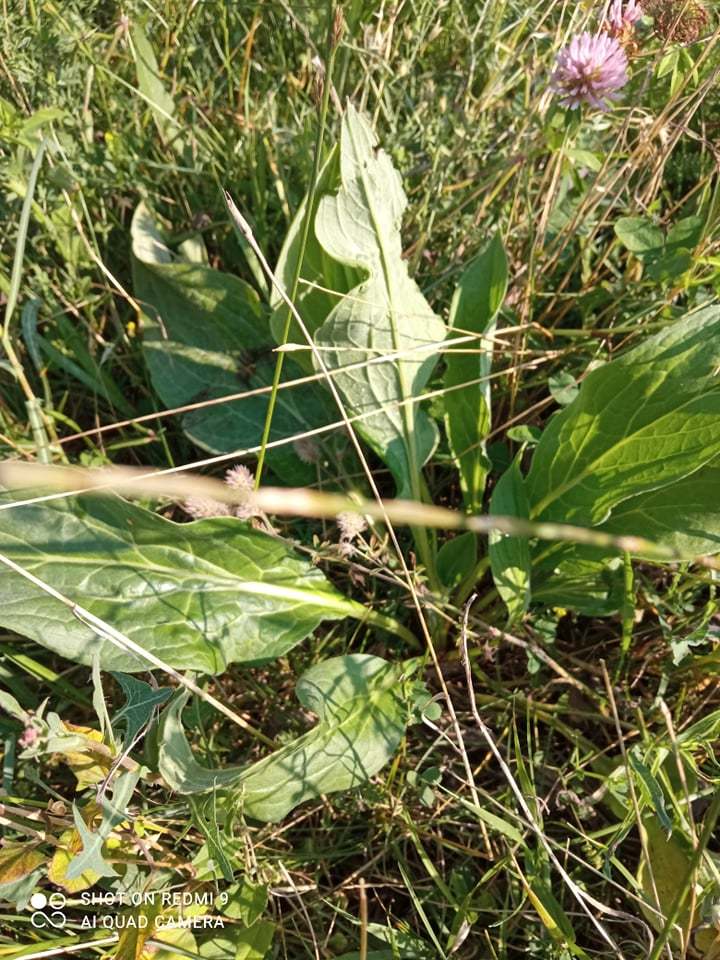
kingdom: Plantae
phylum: Tracheophyta
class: Magnoliopsida
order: Asterales
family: Asteraceae
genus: Solidago
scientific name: Solidago virgaurea
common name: Goldenrod
